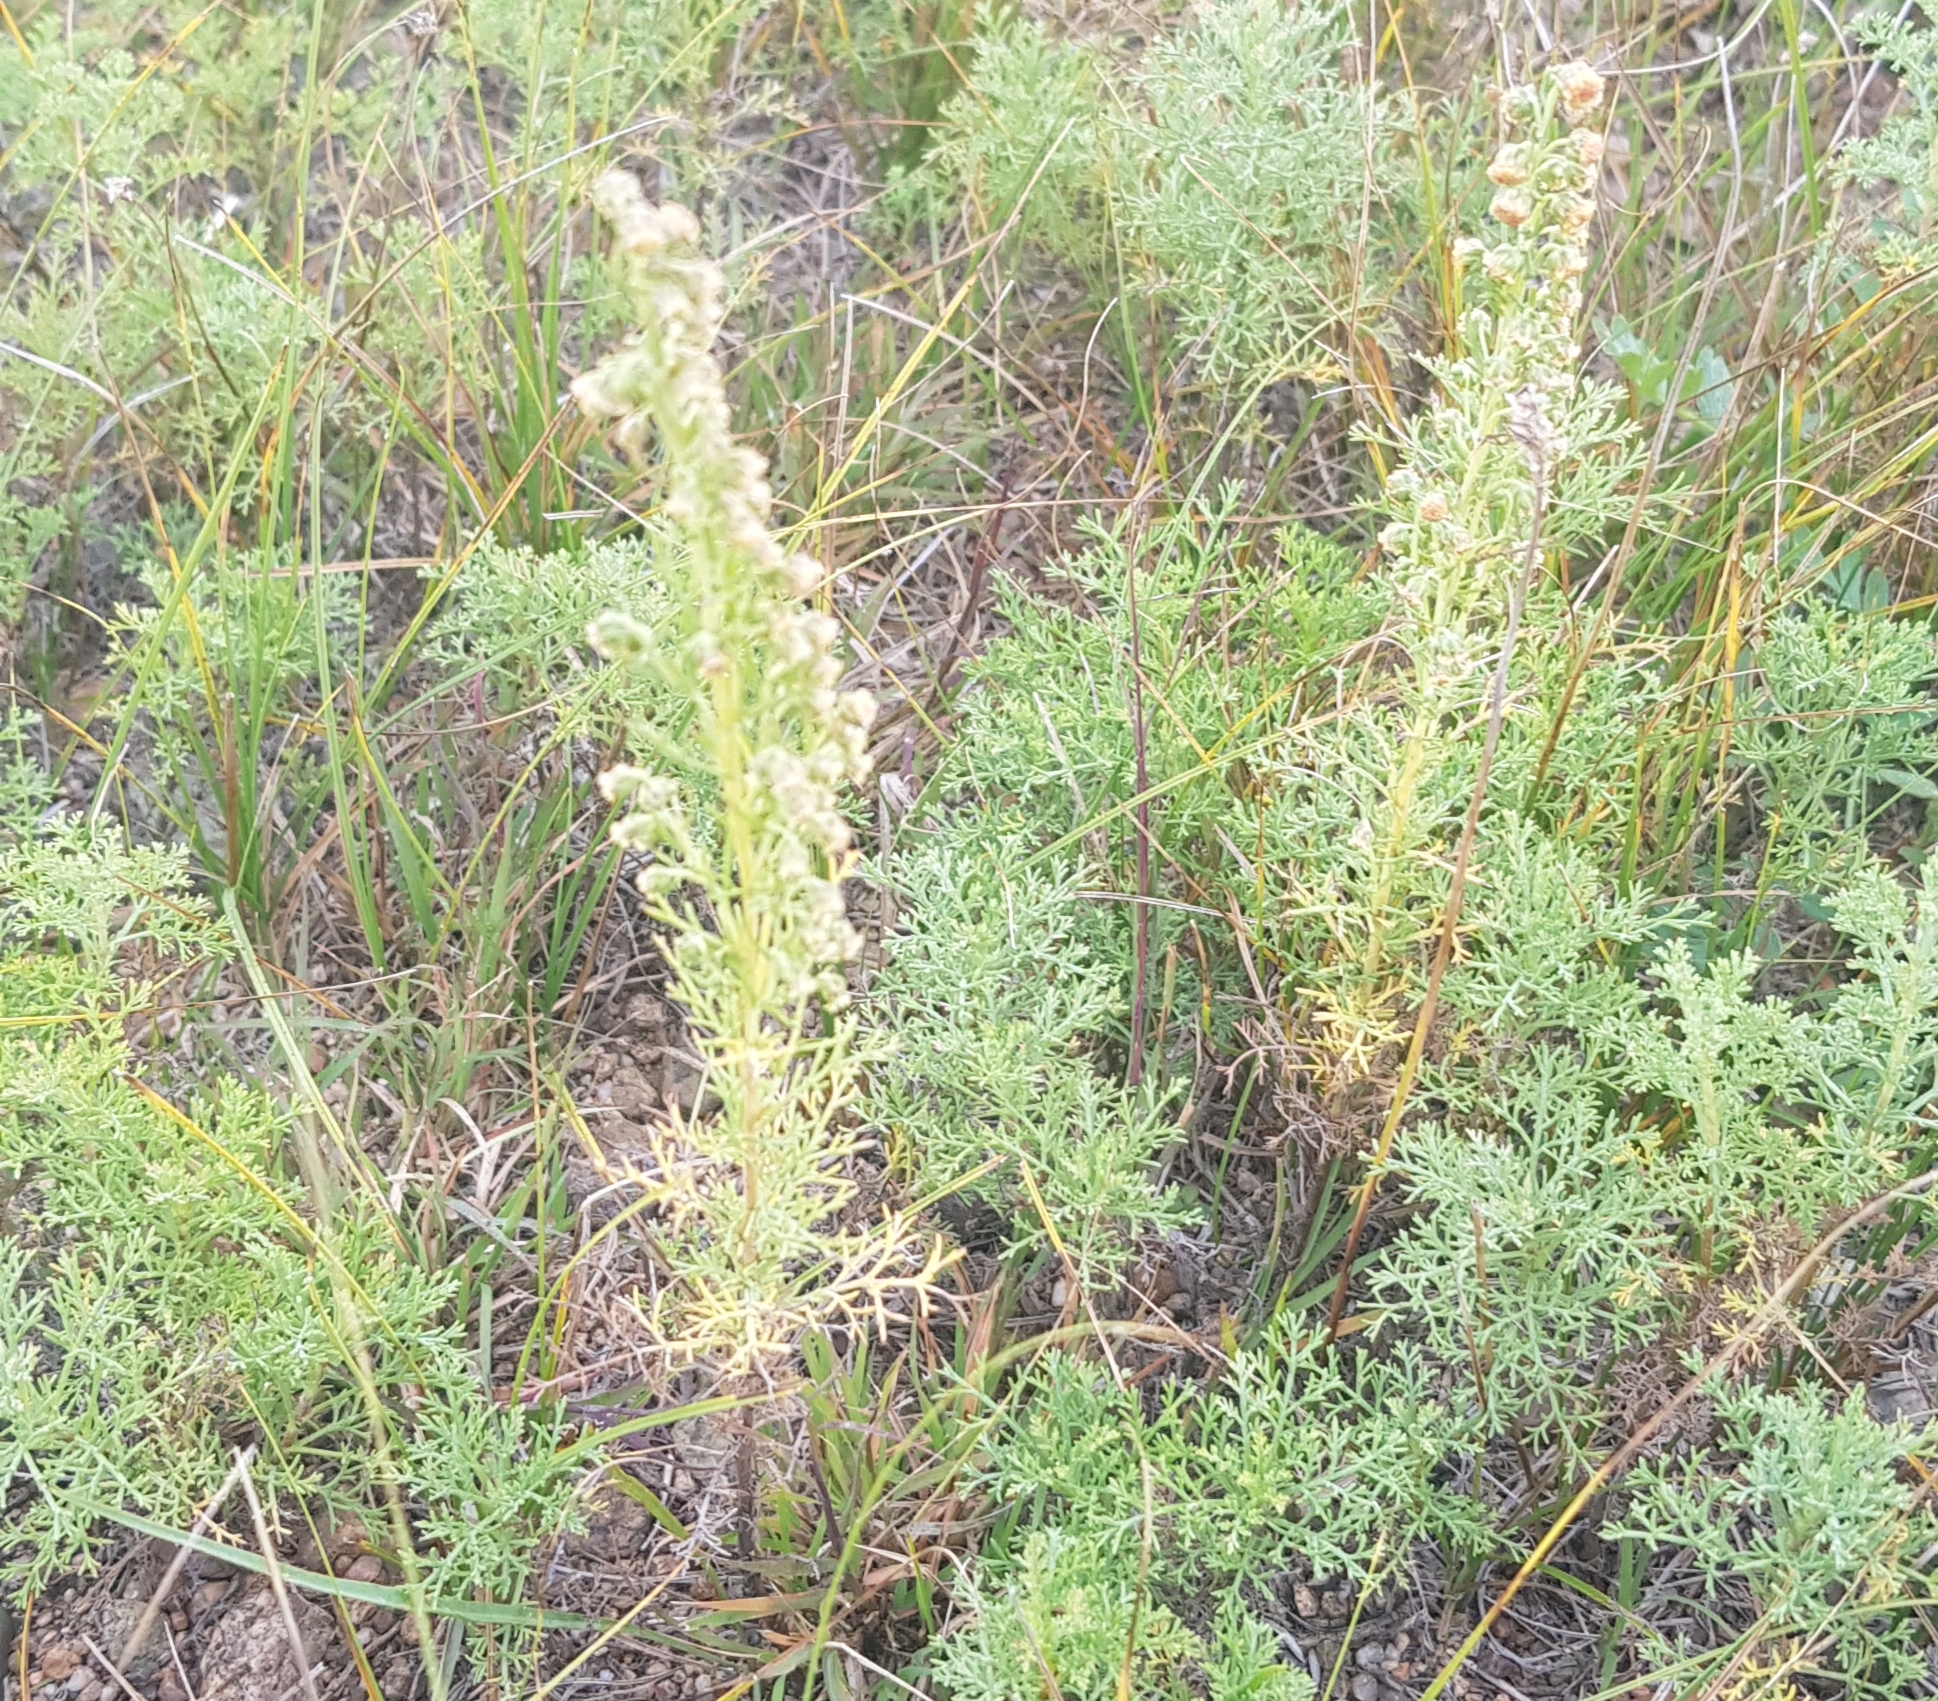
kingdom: Plantae
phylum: Tracheophyta
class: Magnoliopsida
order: Asterales
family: Asteraceae
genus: Artemisia
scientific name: Artemisia adamsii
